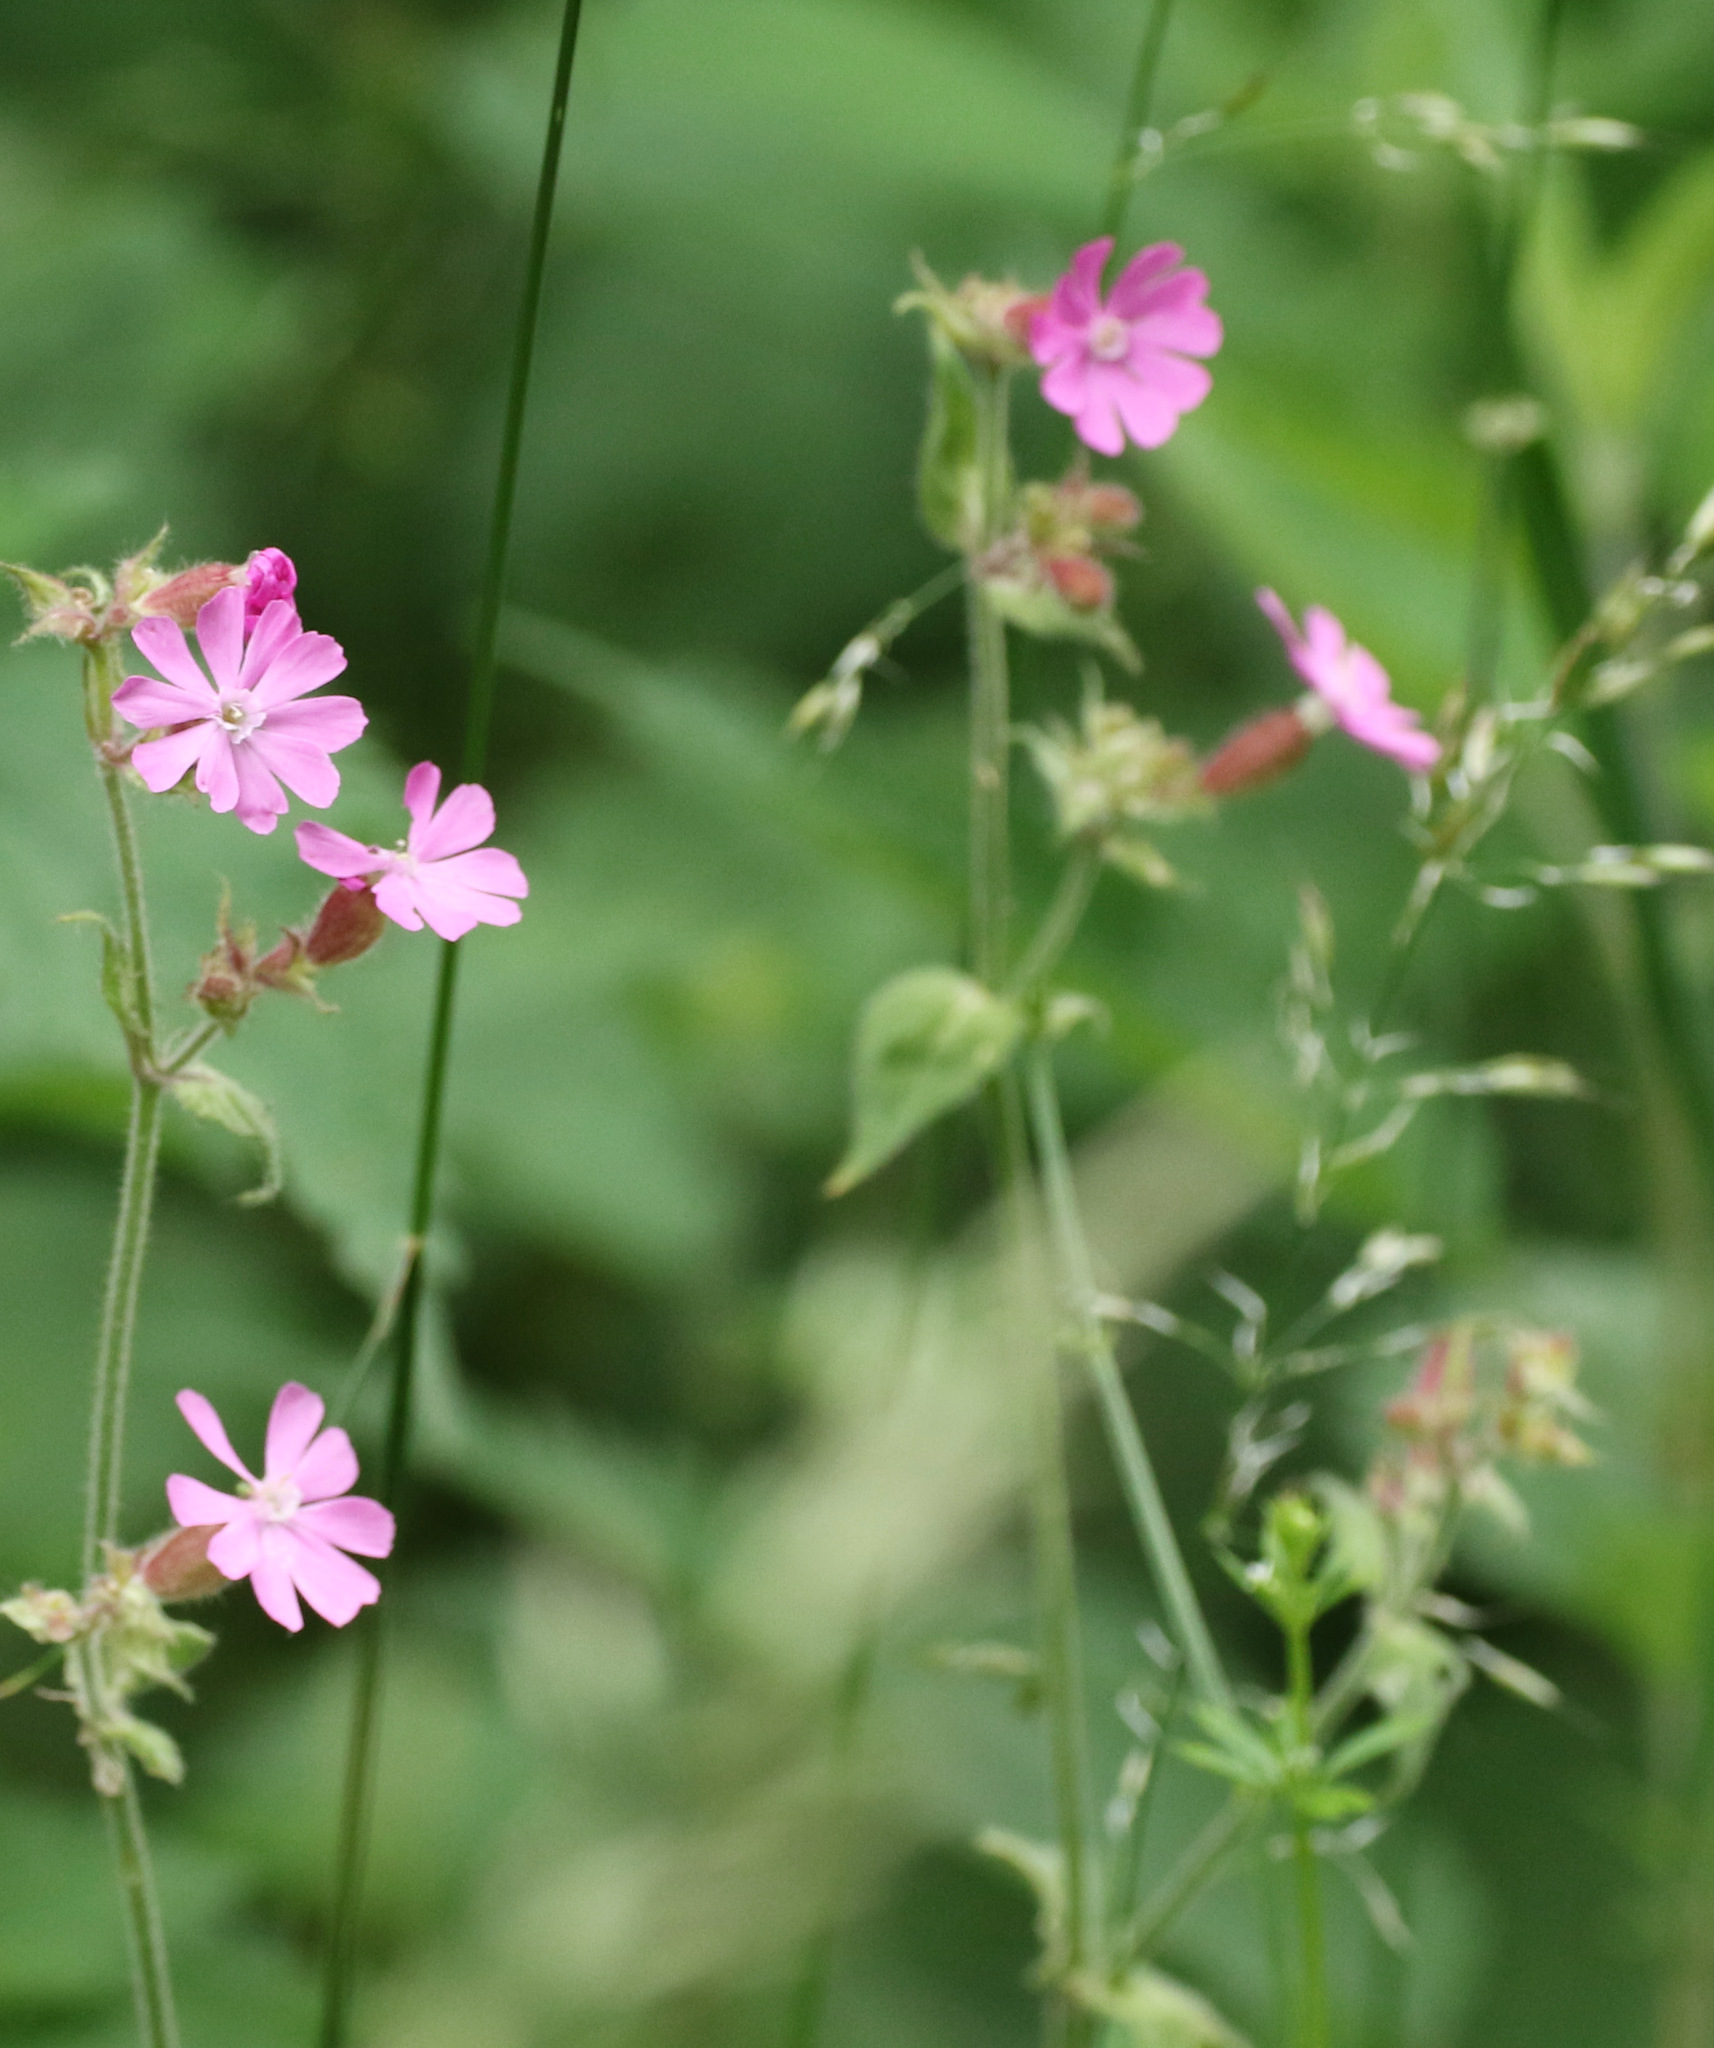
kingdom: Plantae
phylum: Tracheophyta
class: Magnoliopsida
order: Caryophyllales
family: Caryophyllaceae
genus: Silene
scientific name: Silene dioica
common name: Red campion
